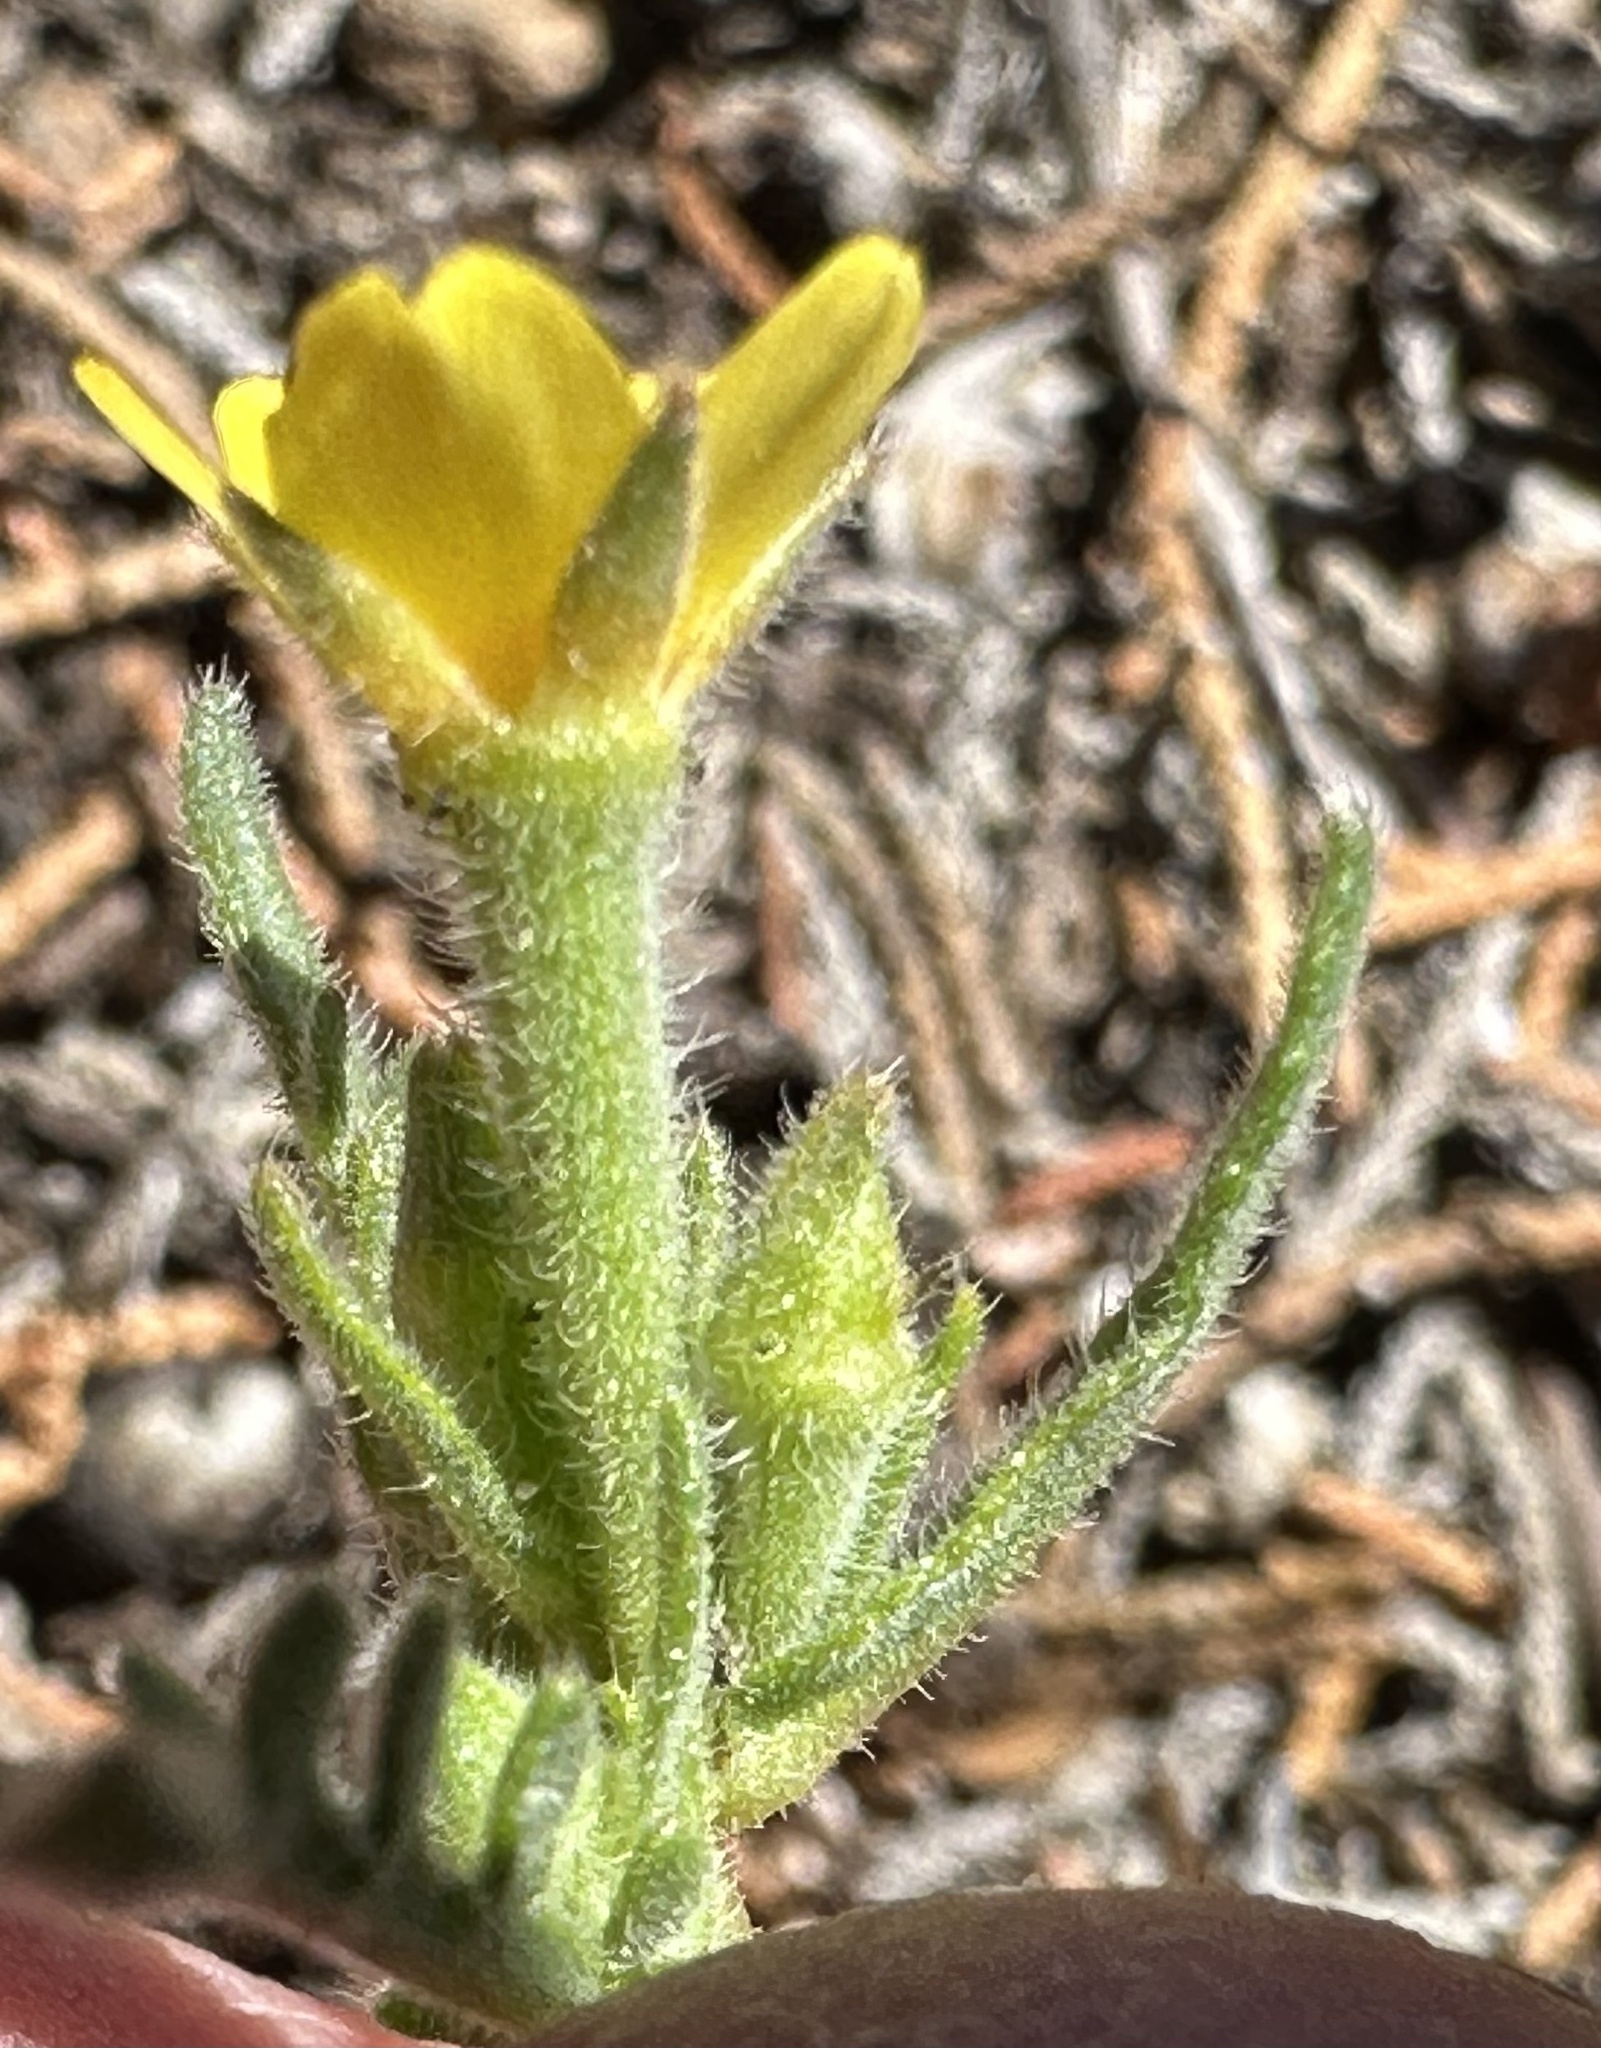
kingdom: Plantae
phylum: Tracheophyta
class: Magnoliopsida
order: Cornales
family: Loasaceae
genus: Mentzelia
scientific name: Mentzelia albicaulis
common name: White-stem blazingstar
